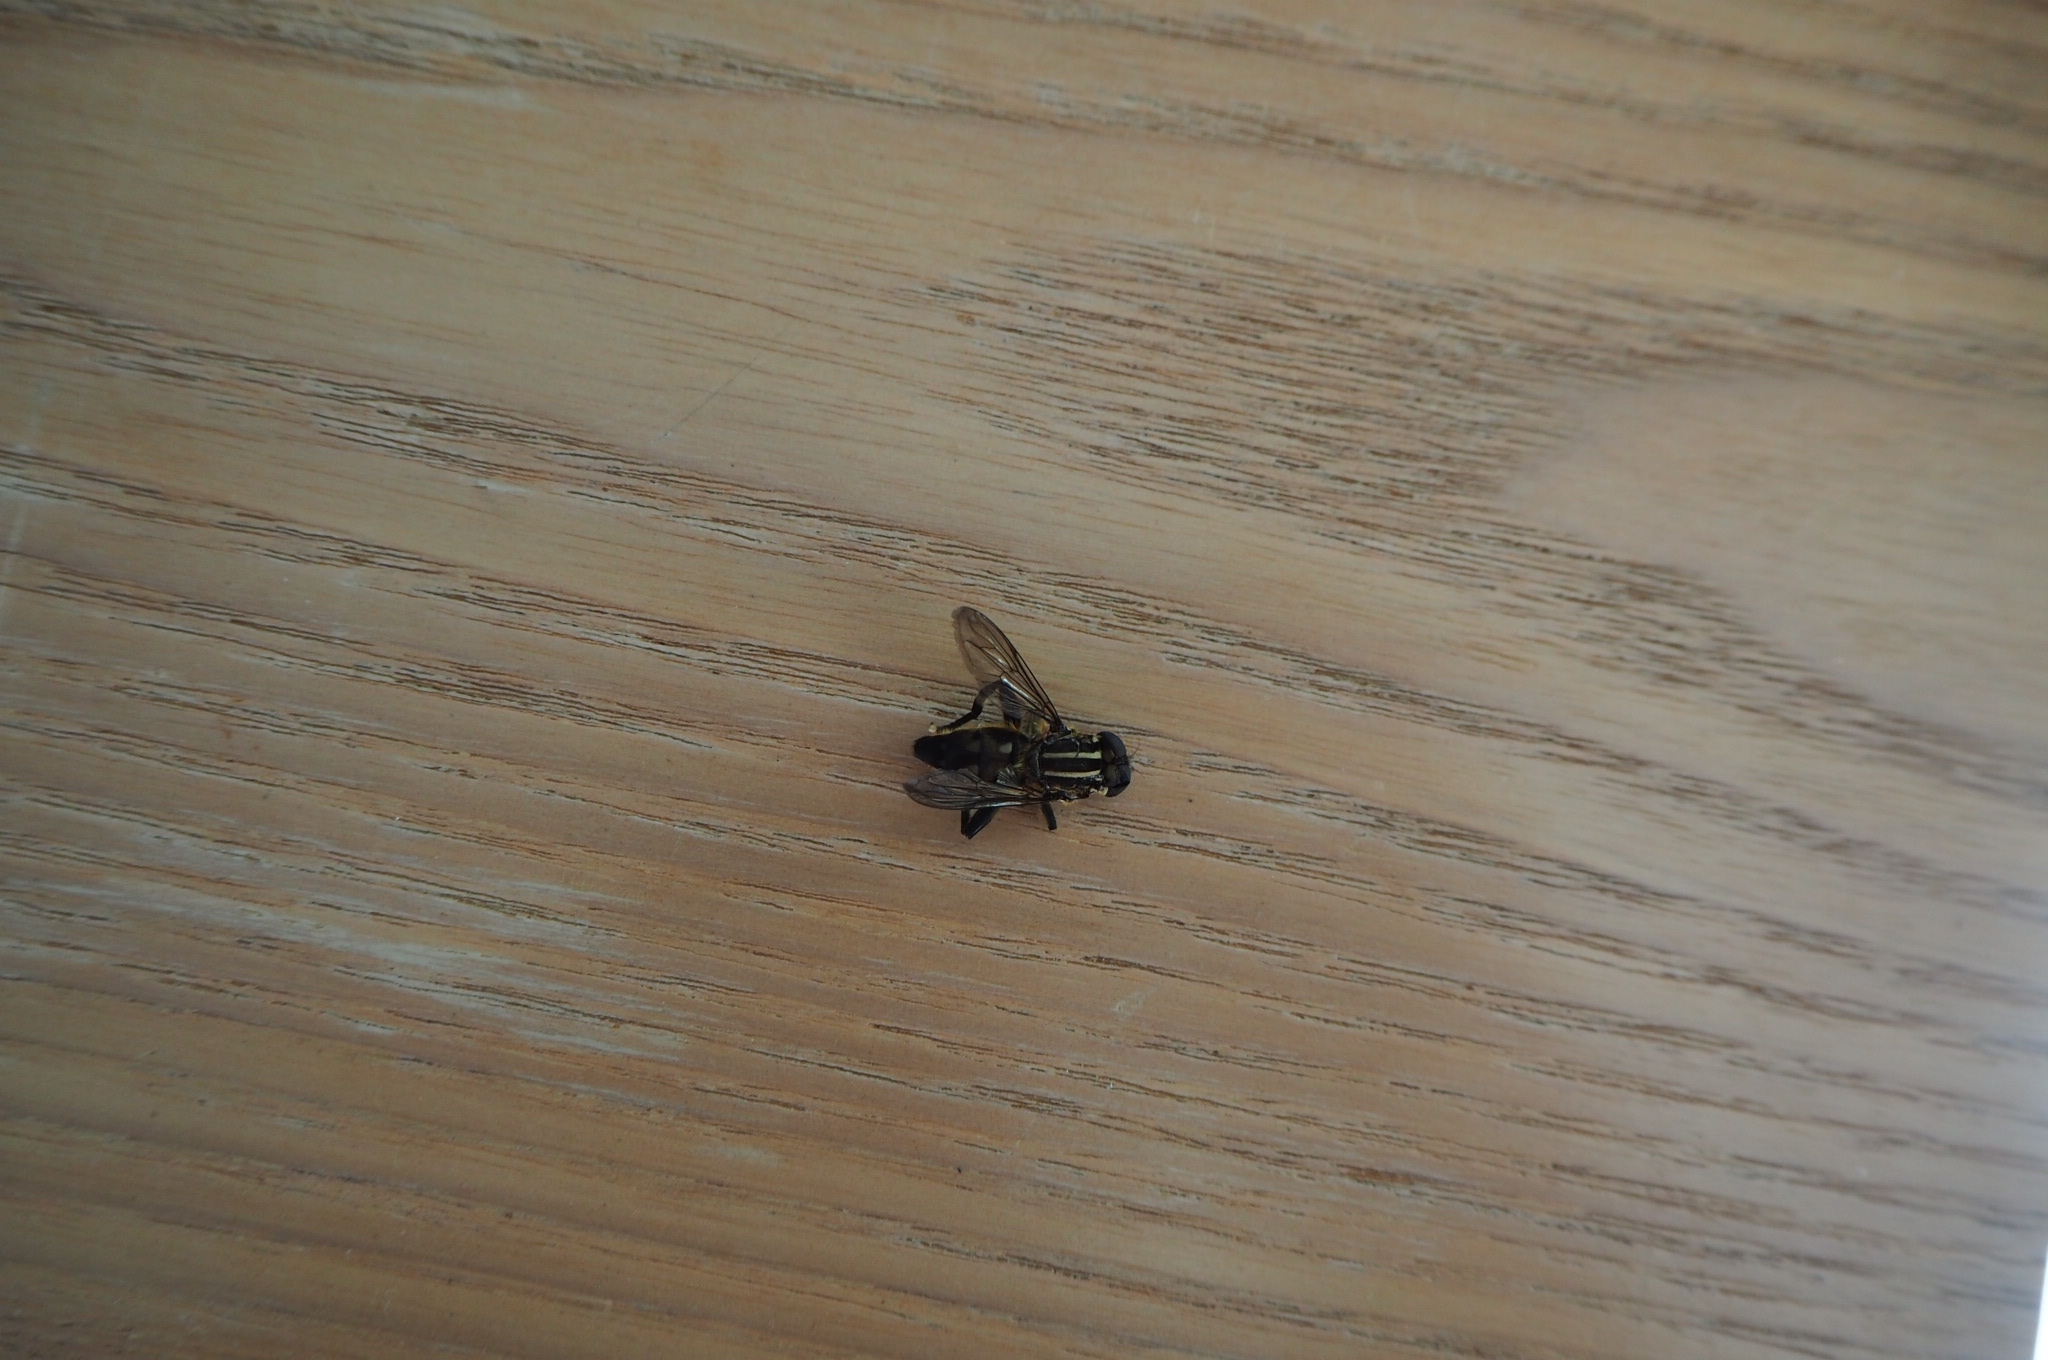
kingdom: Animalia
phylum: Arthropoda
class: Insecta
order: Diptera
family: Syrphidae
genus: Orthoprosopa
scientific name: Orthoprosopa bilineata
